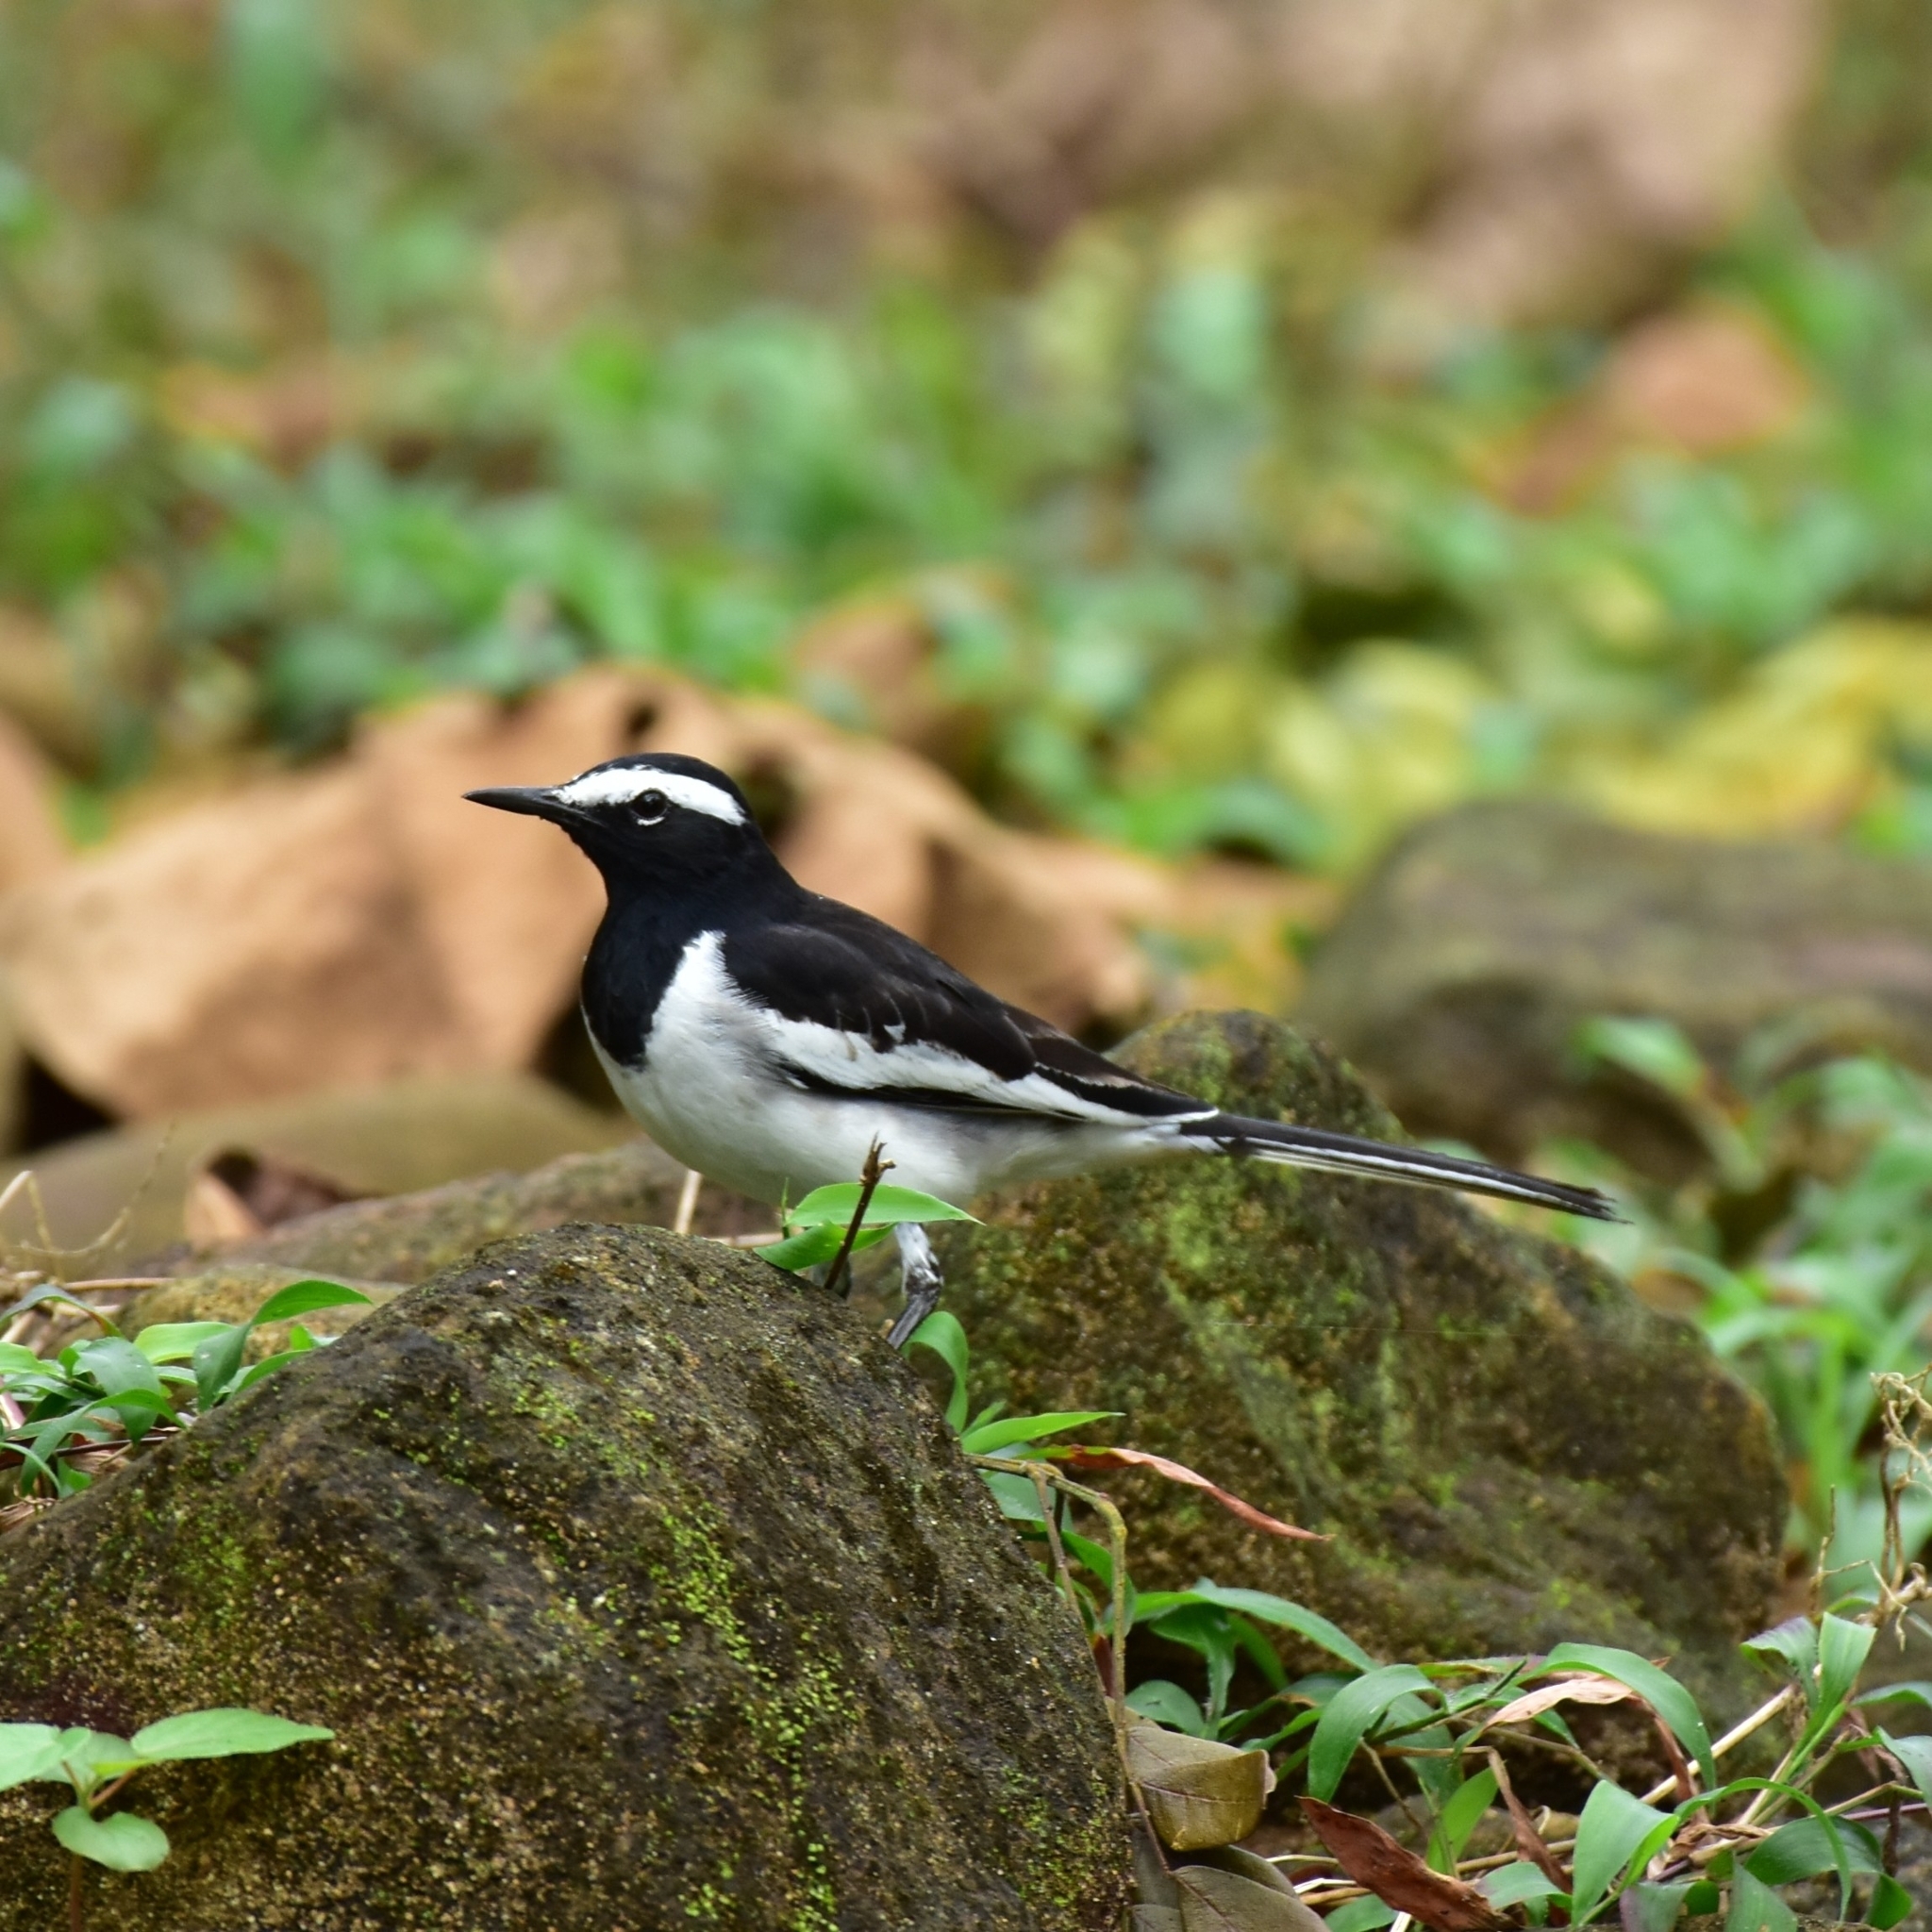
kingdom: Animalia
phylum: Chordata
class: Aves
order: Passeriformes
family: Motacillidae
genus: Motacilla
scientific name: Motacilla maderaspatensis
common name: White-browed wagtail
